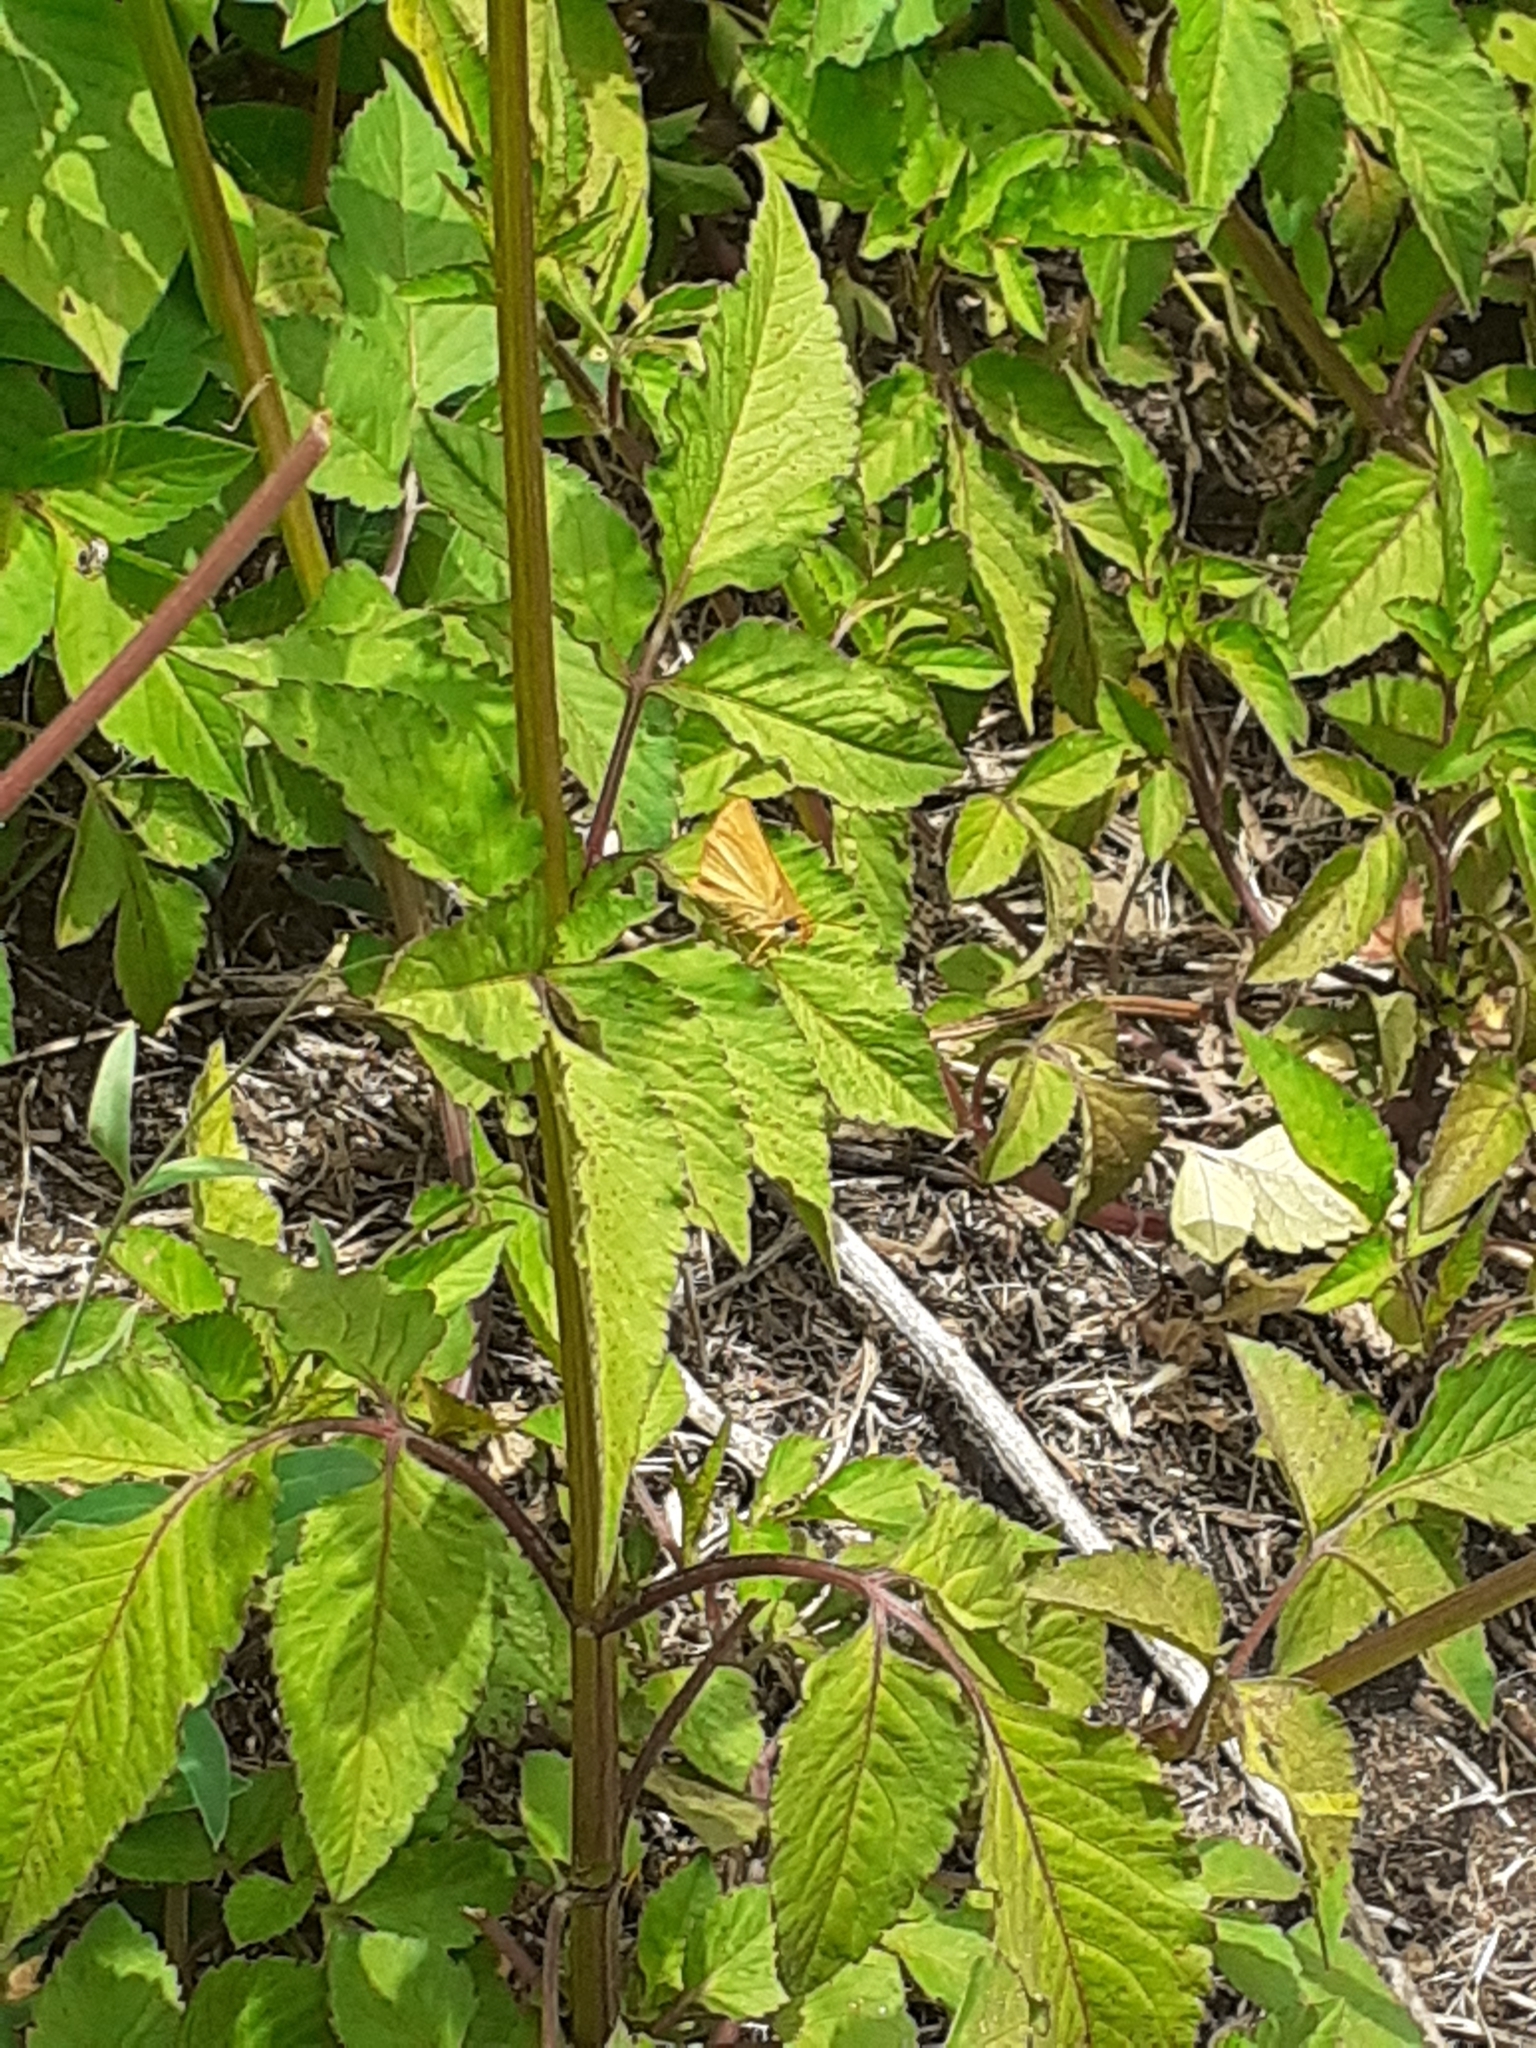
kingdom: Animalia
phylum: Arthropoda
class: Insecta
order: Lepidoptera
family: Hesperiidae
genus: Thymelicus
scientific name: Thymelicus acteon
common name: Lulworth skipper
